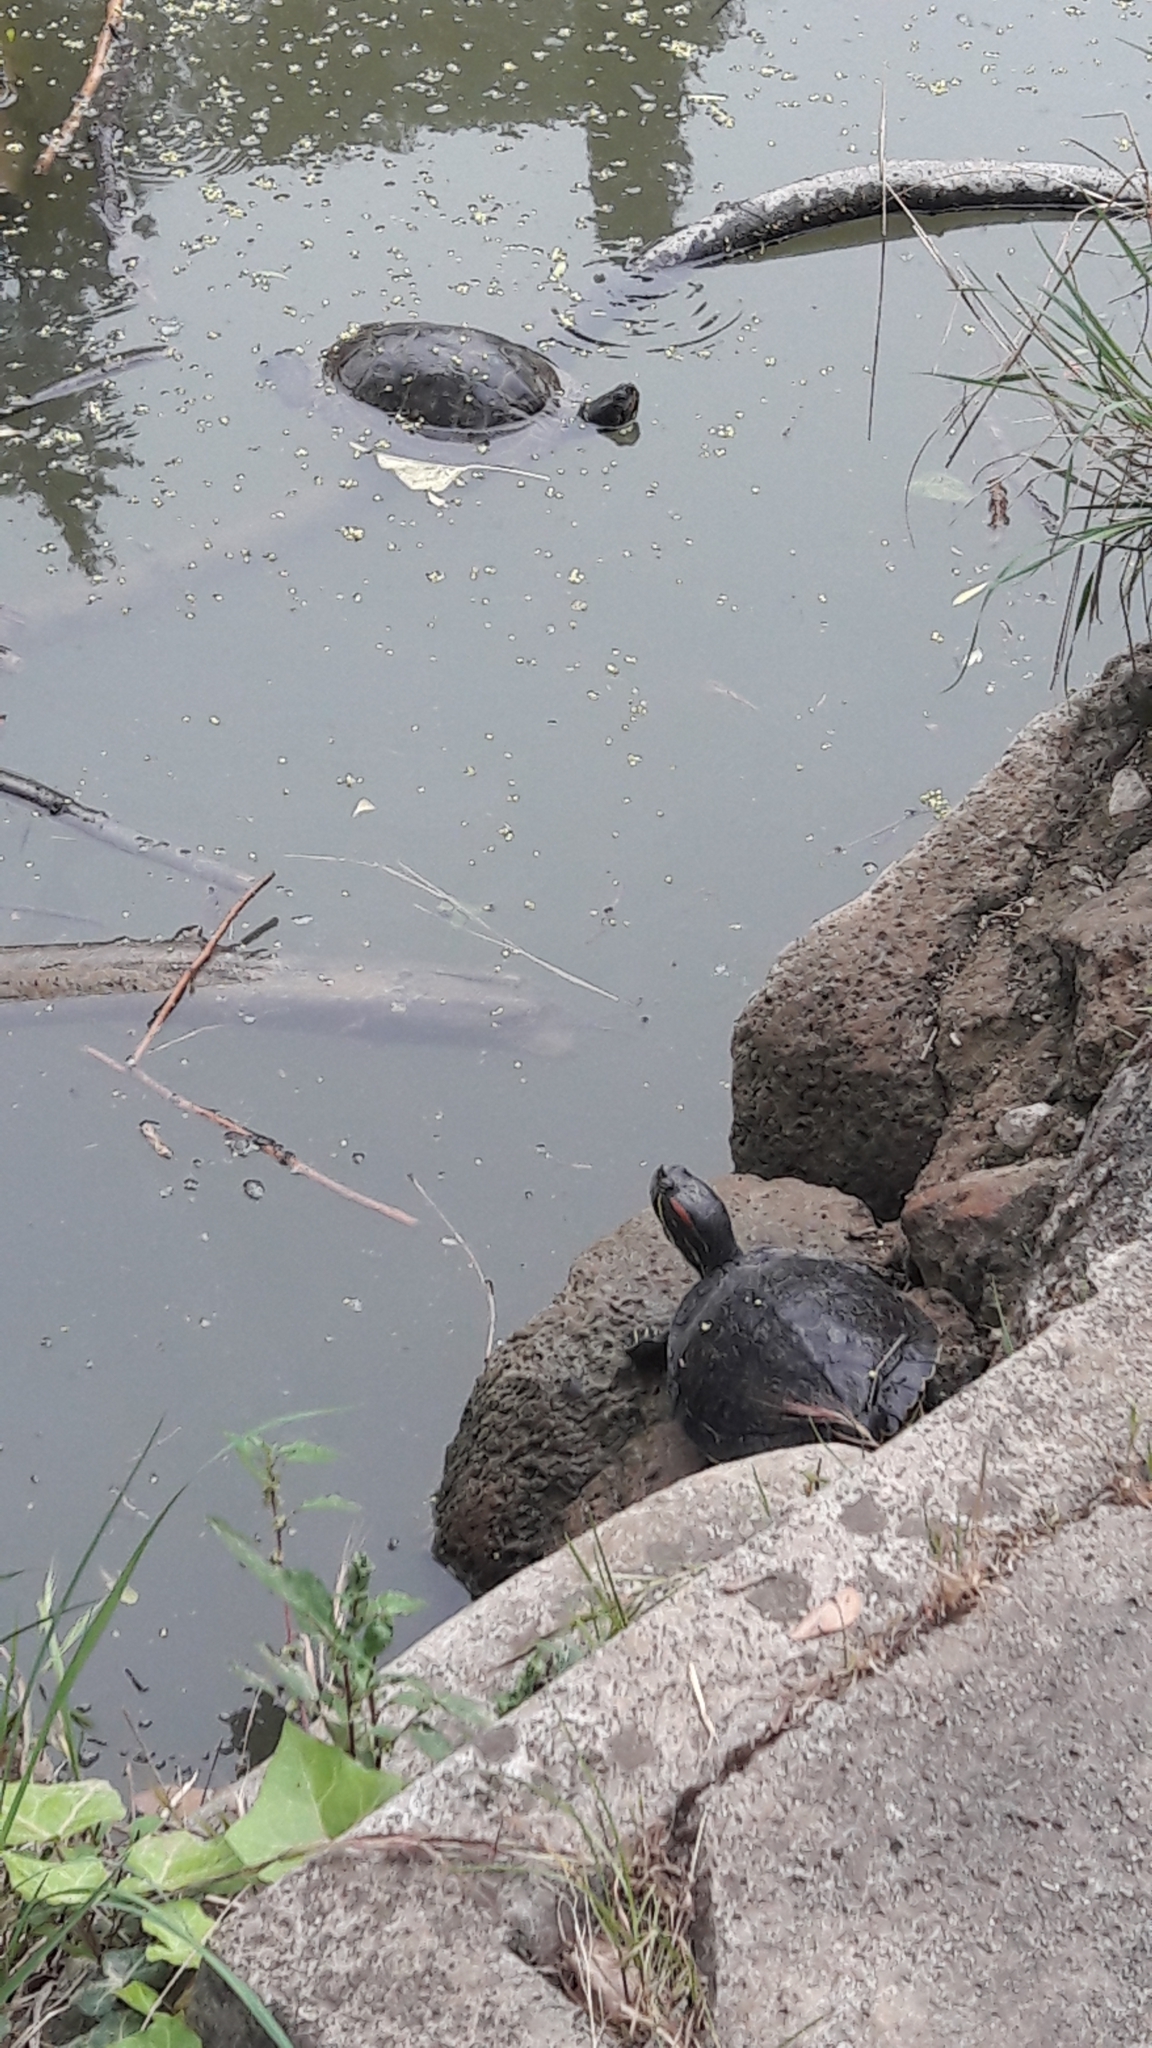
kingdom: Animalia
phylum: Chordata
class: Testudines
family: Emydidae
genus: Trachemys
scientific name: Trachemys scripta
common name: Slider
